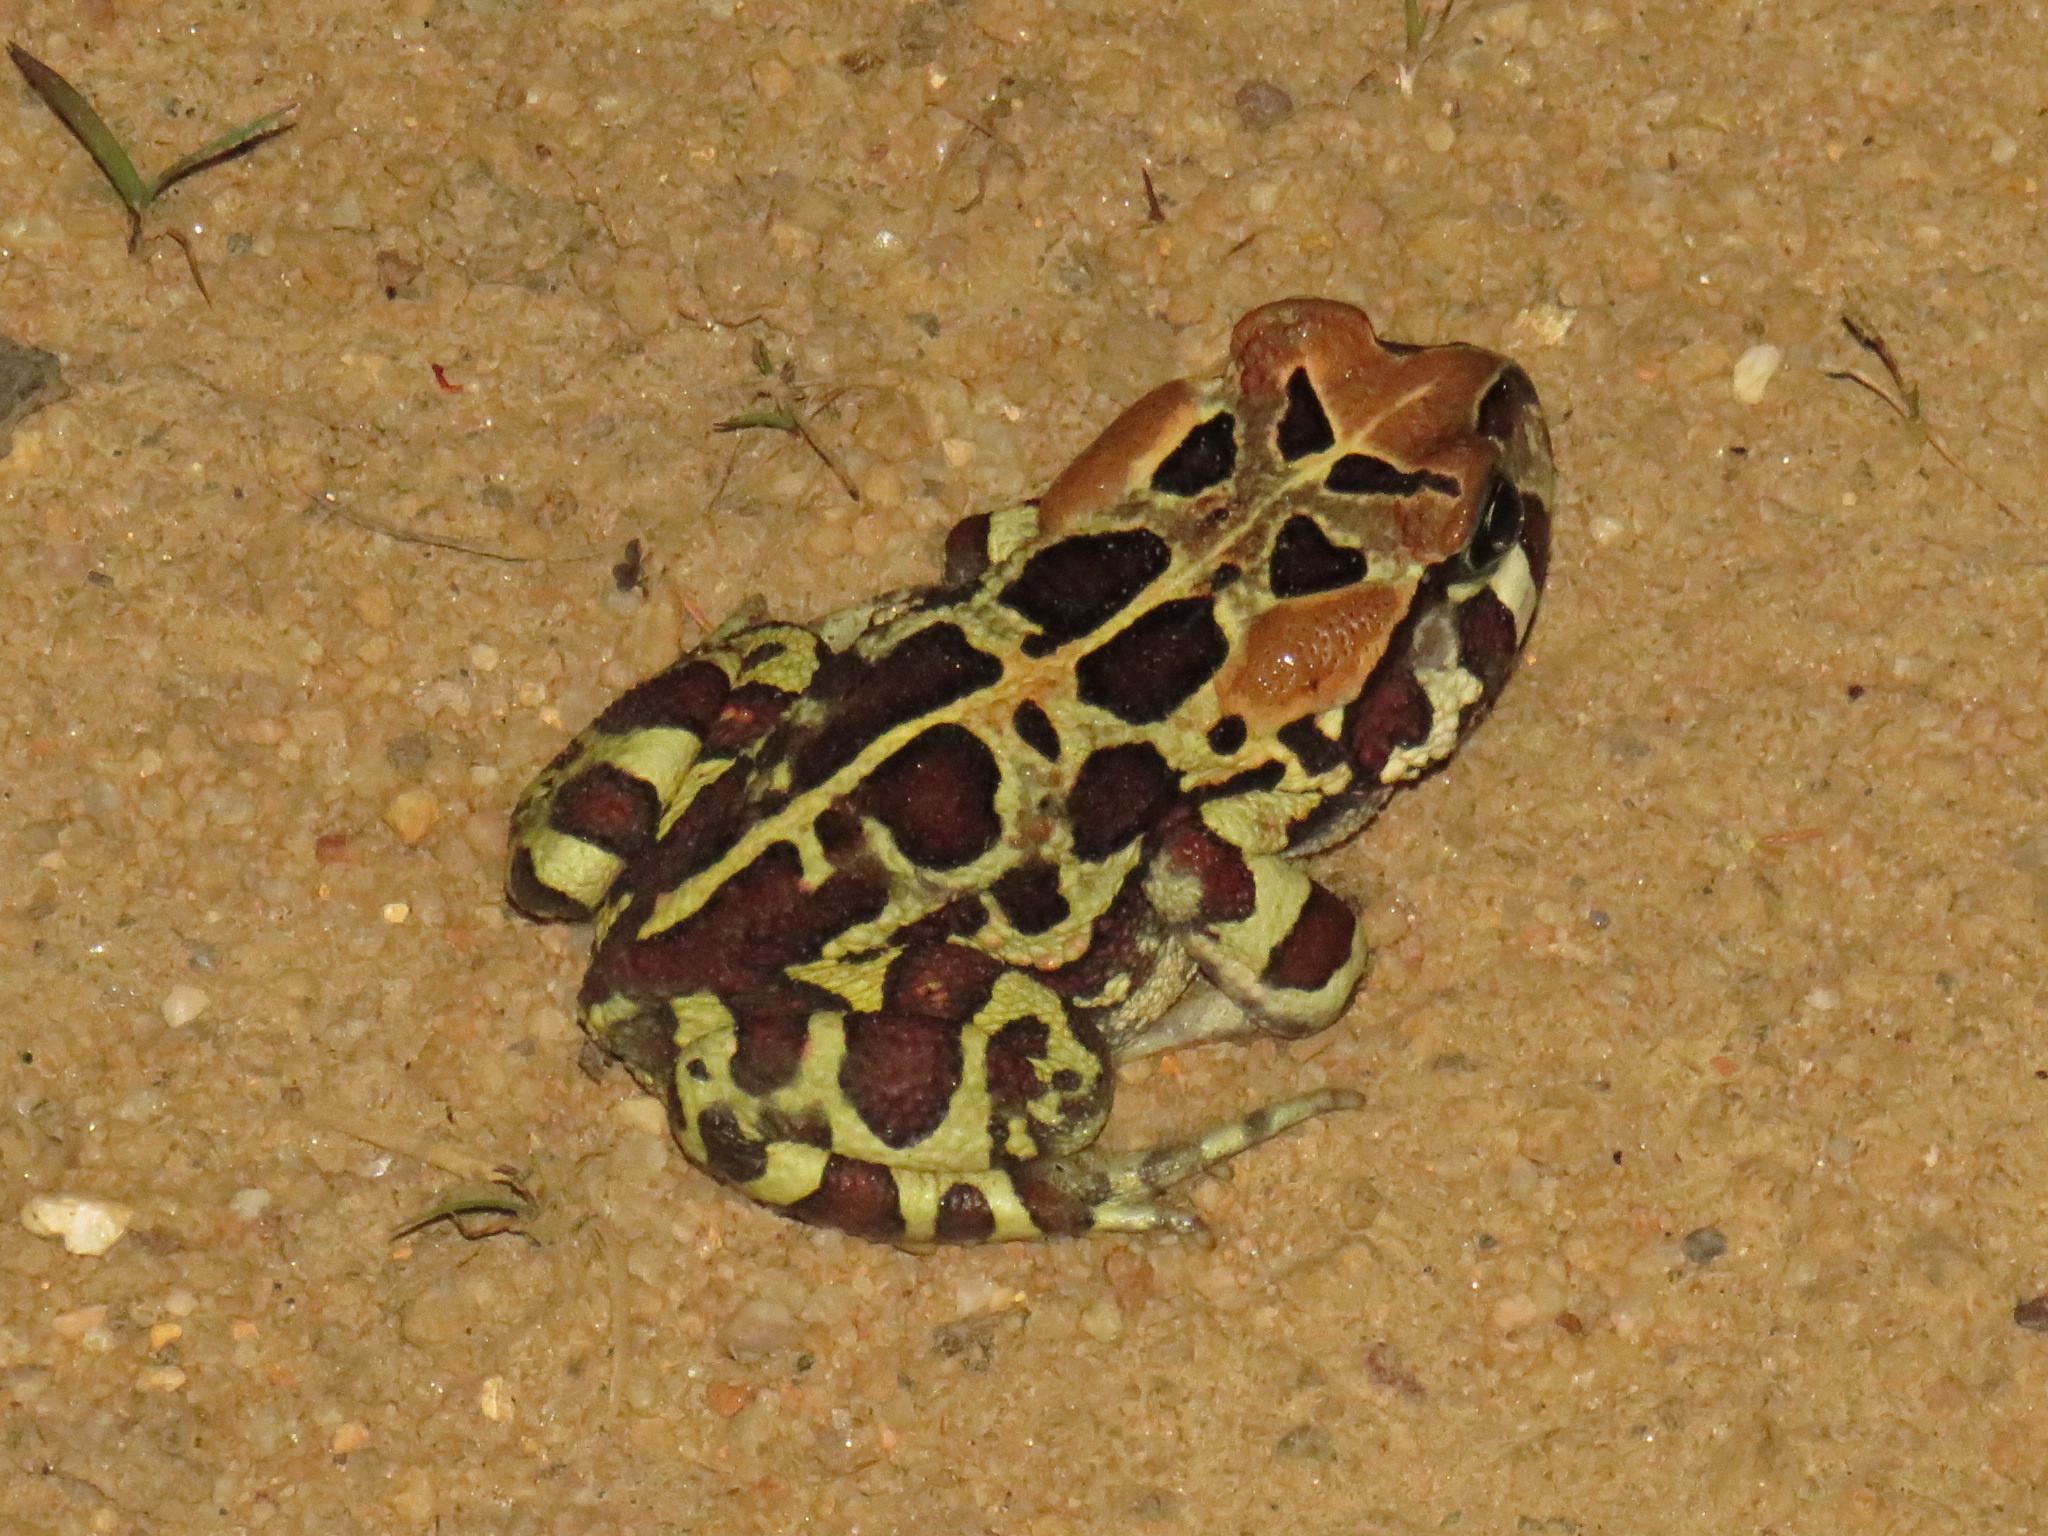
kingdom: Animalia
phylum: Chordata
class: Amphibia
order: Anura
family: Bufonidae
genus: Sclerophrys
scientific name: Sclerophrys pantherina
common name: Panther toad
